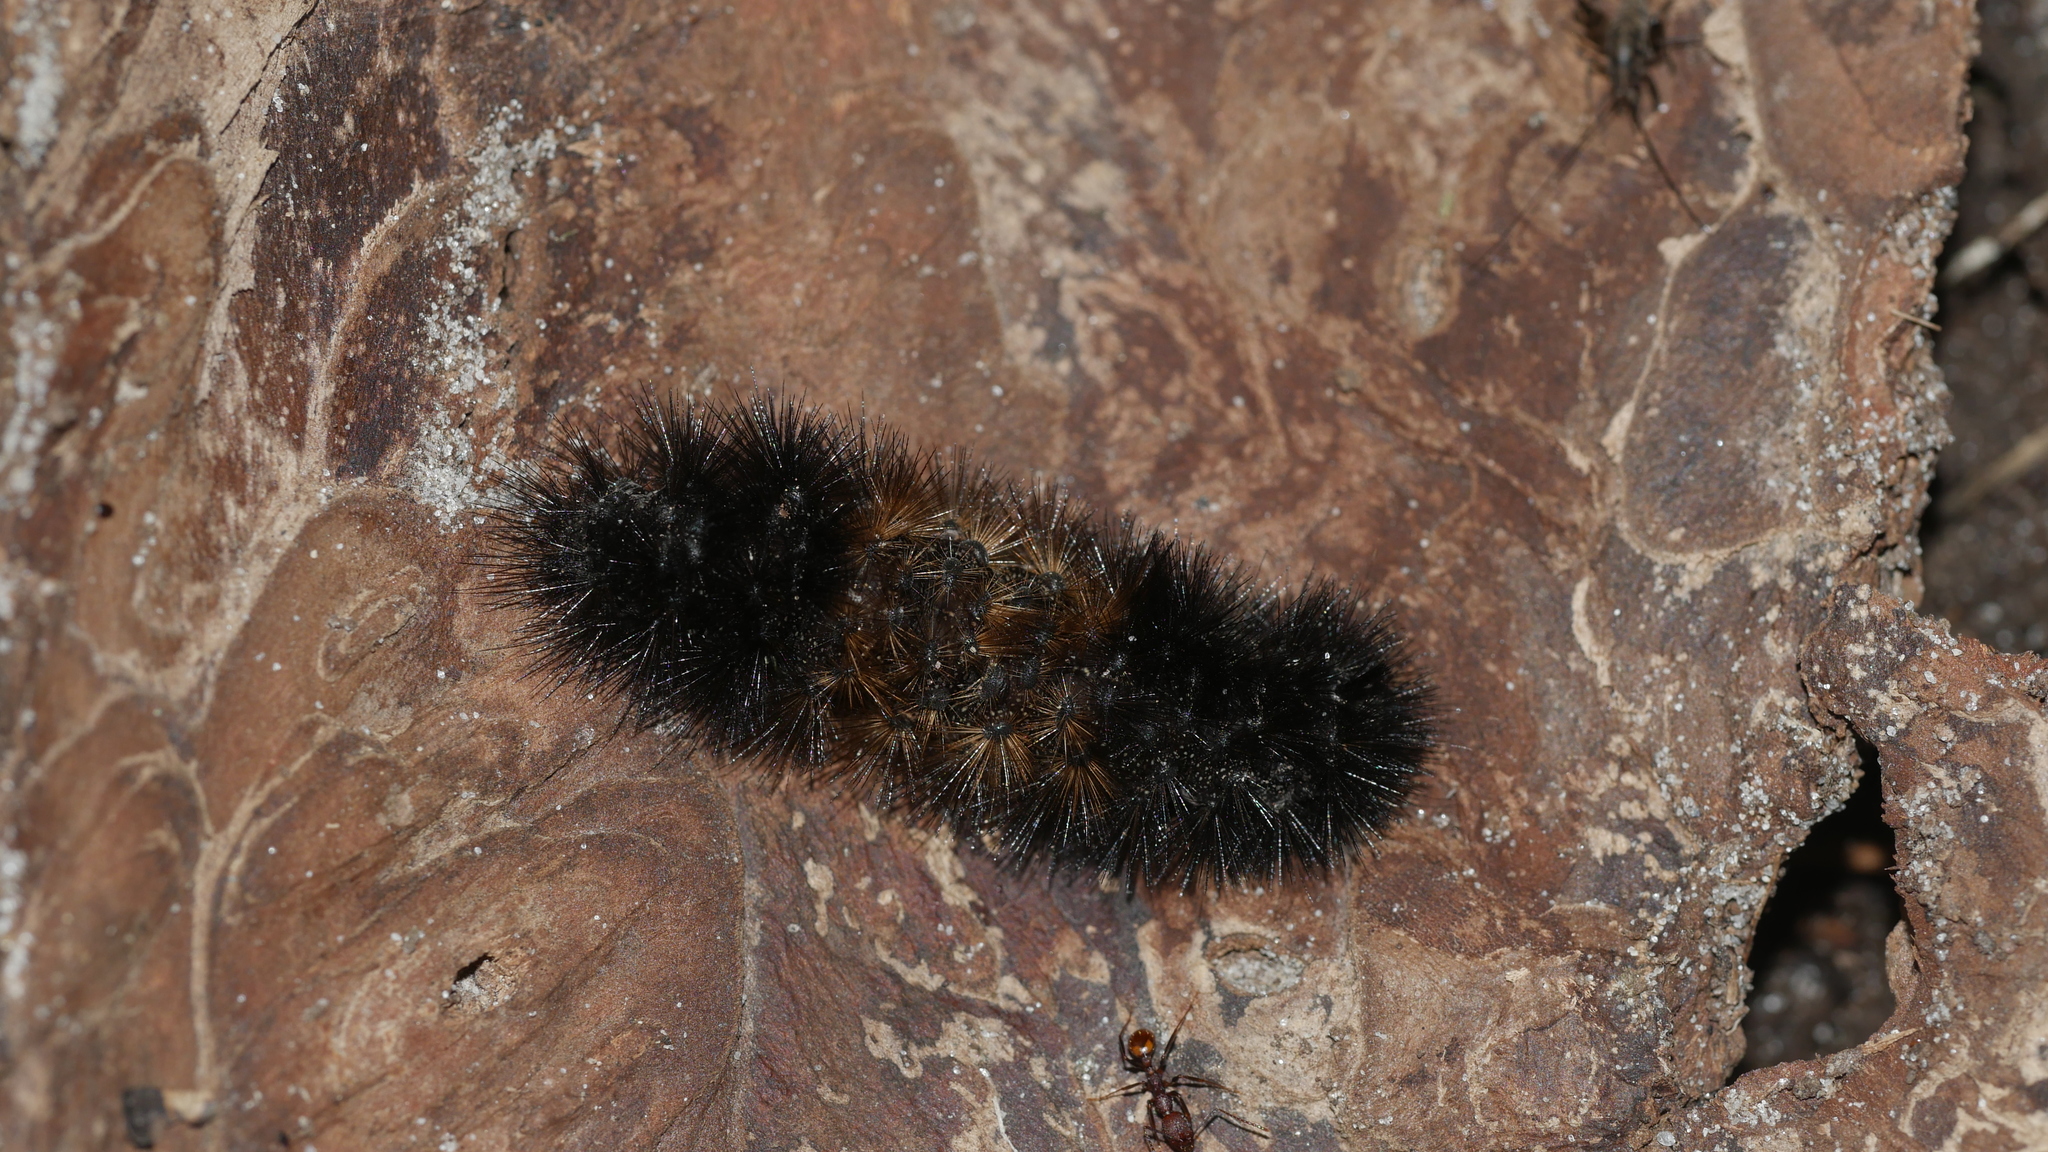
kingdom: Animalia
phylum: Arthropoda
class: Insecta
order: Lepidoptera
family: Erebidae
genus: Pyrrharctia
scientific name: Pyrrharctia isabella
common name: Isabella tiger moth
